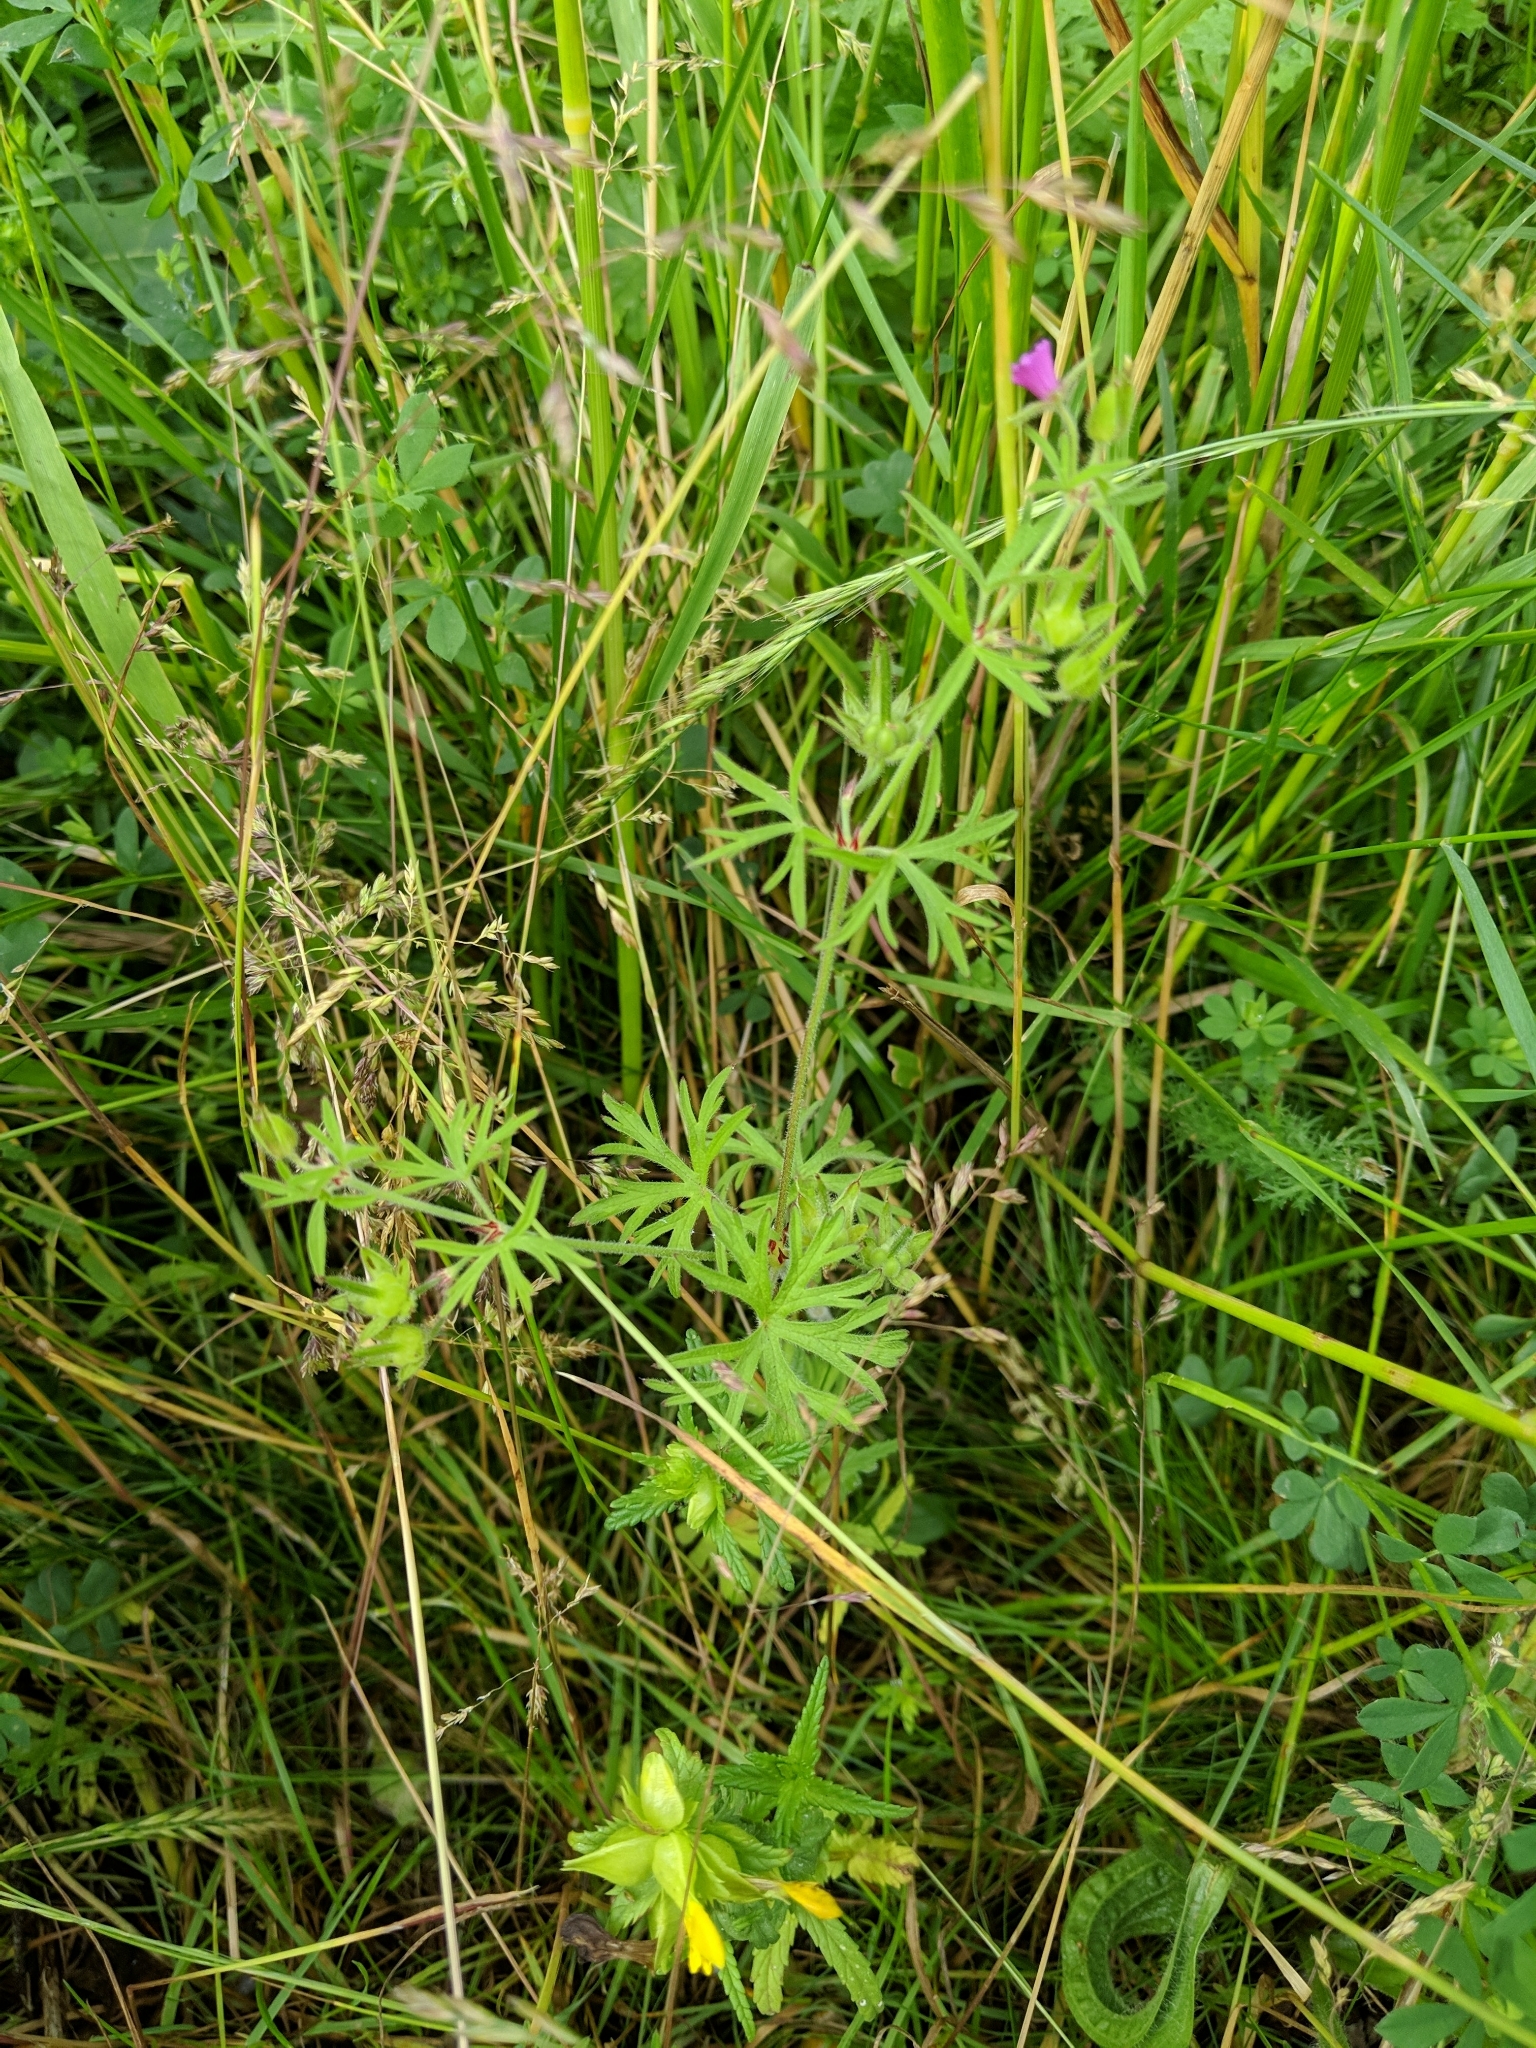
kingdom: Plantae
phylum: Tracheophyta
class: Magnoliopsida
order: Geraniales
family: Geraniaceae
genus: Geranium
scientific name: Geranium dissectum
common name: Cut-leaved crane's-bill
